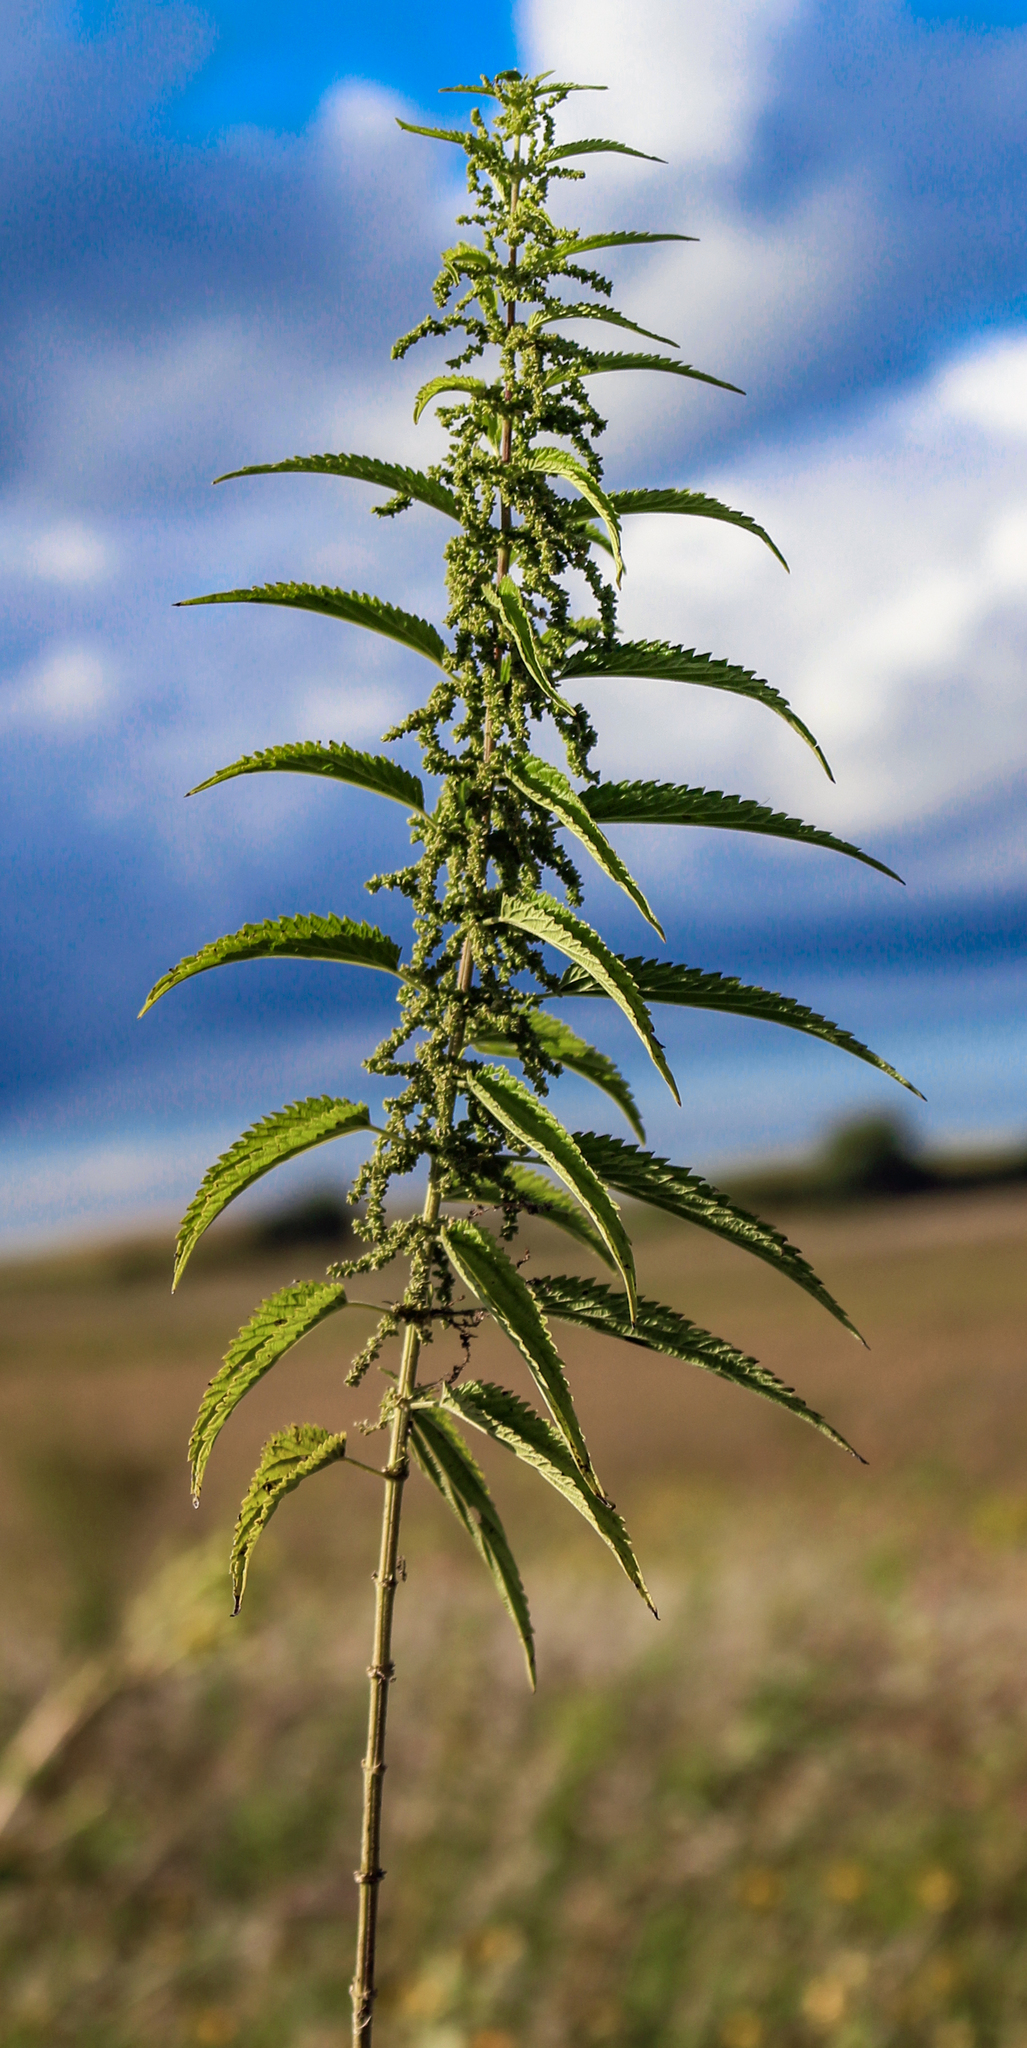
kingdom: Plantae
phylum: Tracheophyta
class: Magnoliopsida
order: Rosales
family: Urticaceae
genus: Urtica
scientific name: Urtica dioica
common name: Common nettle
